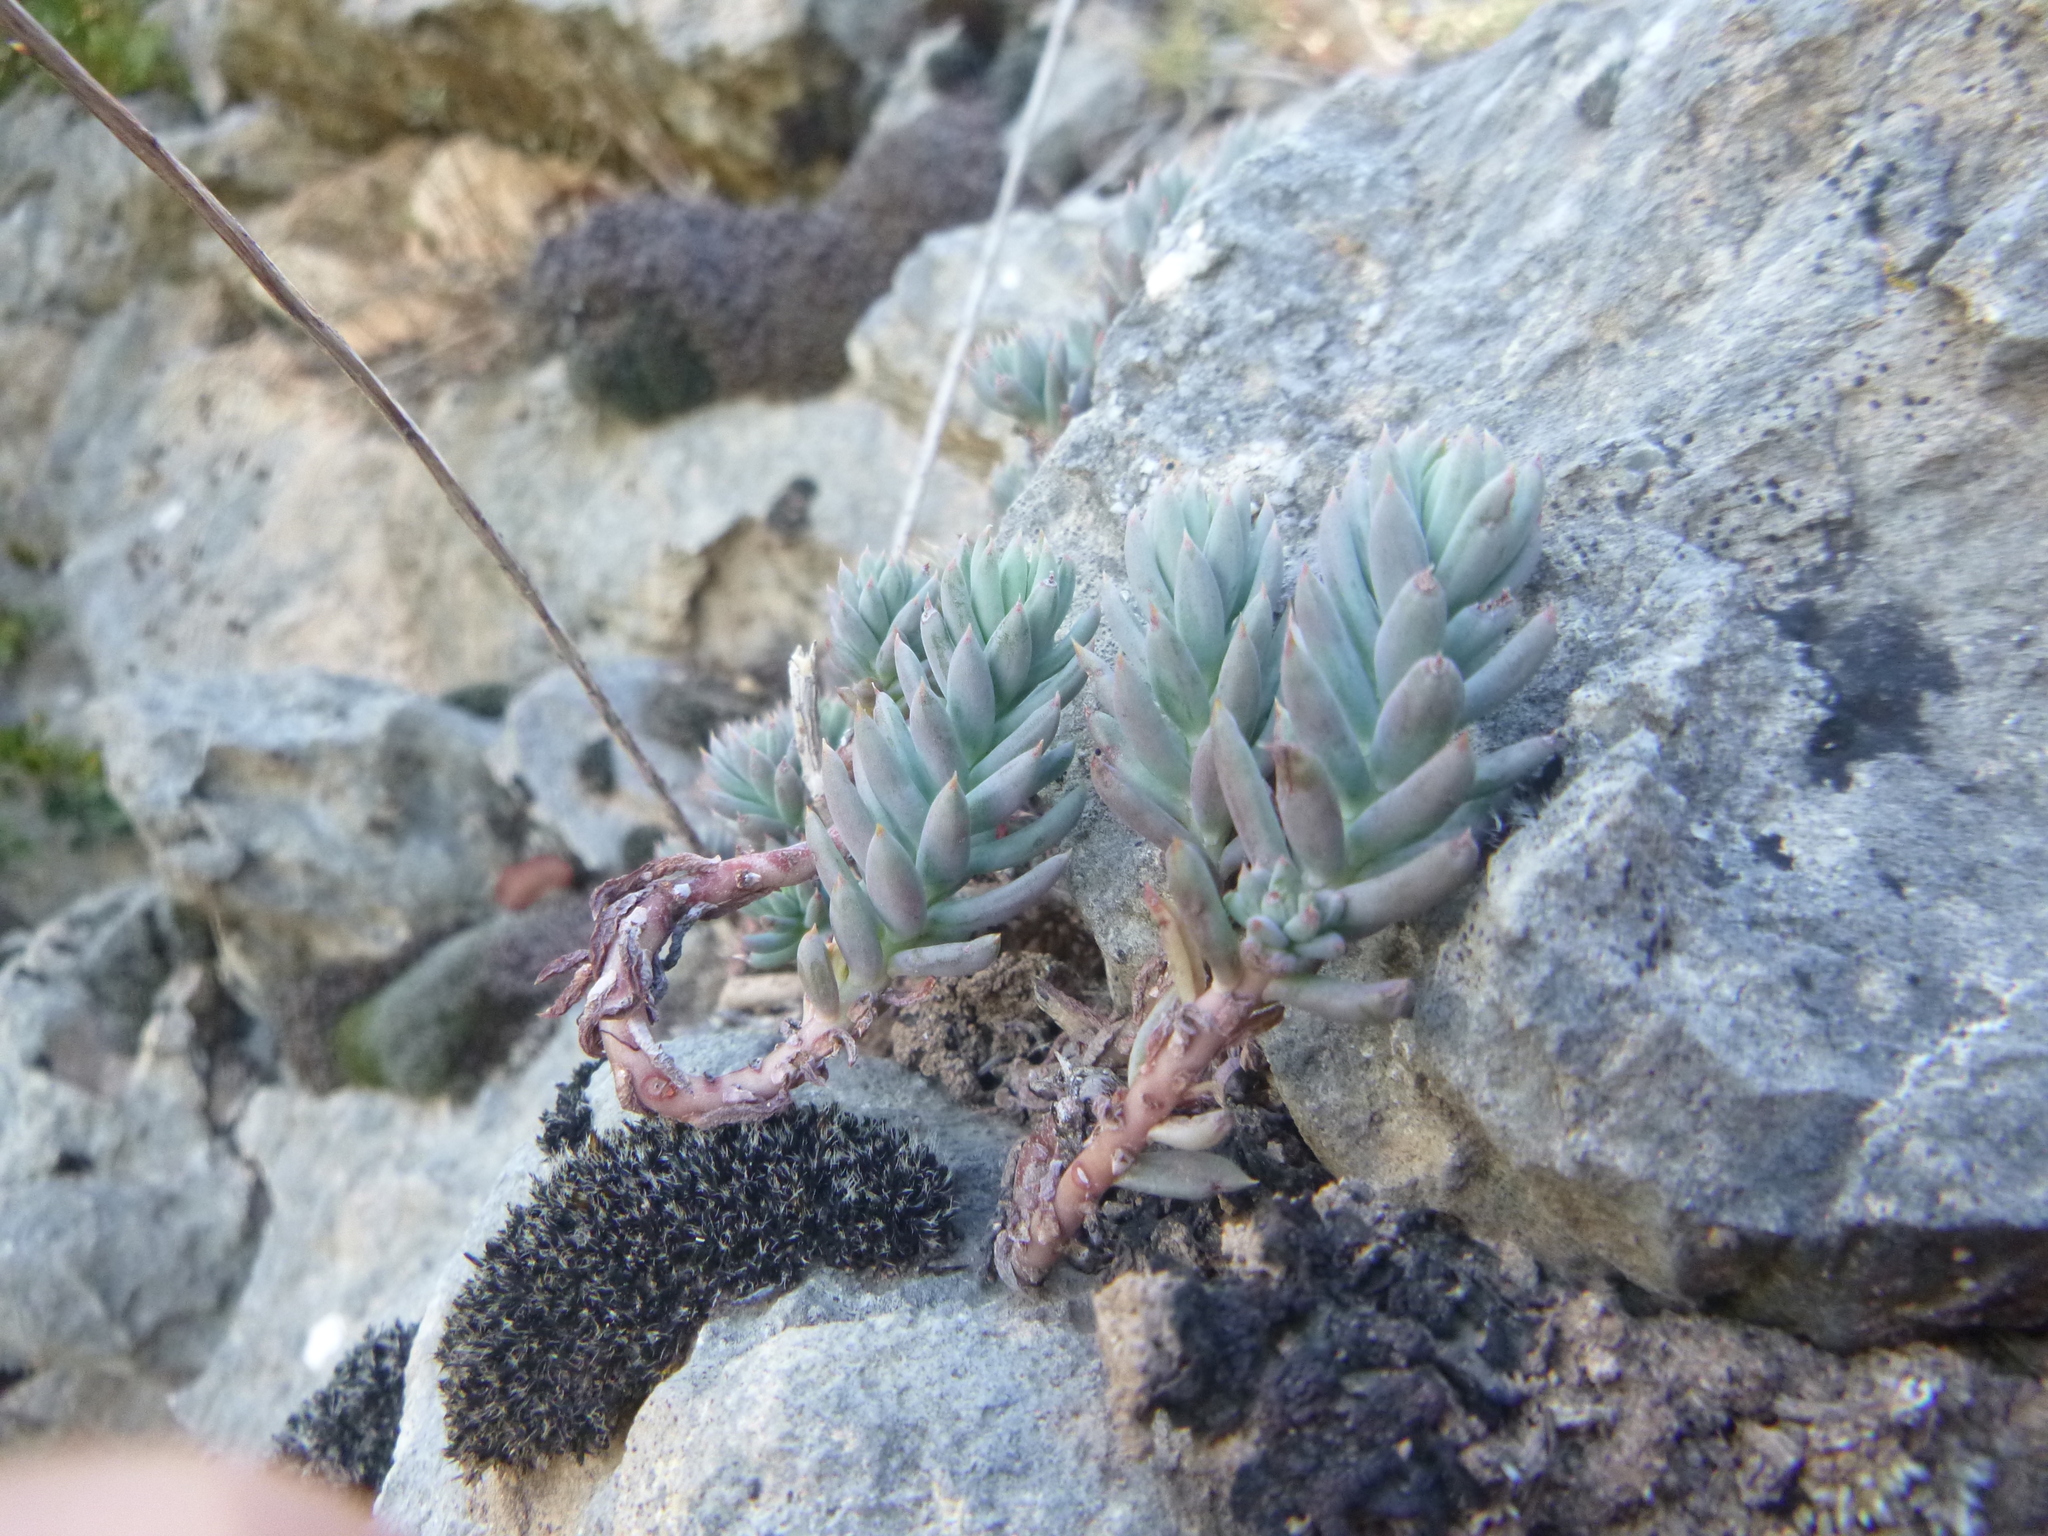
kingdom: Plantae
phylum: Tracheophyta
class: Magnoliopsida
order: Saxifragales
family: Crassulaceae
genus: Petrosedum
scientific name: Petrosedum sediforme
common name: Pale stonecrop
